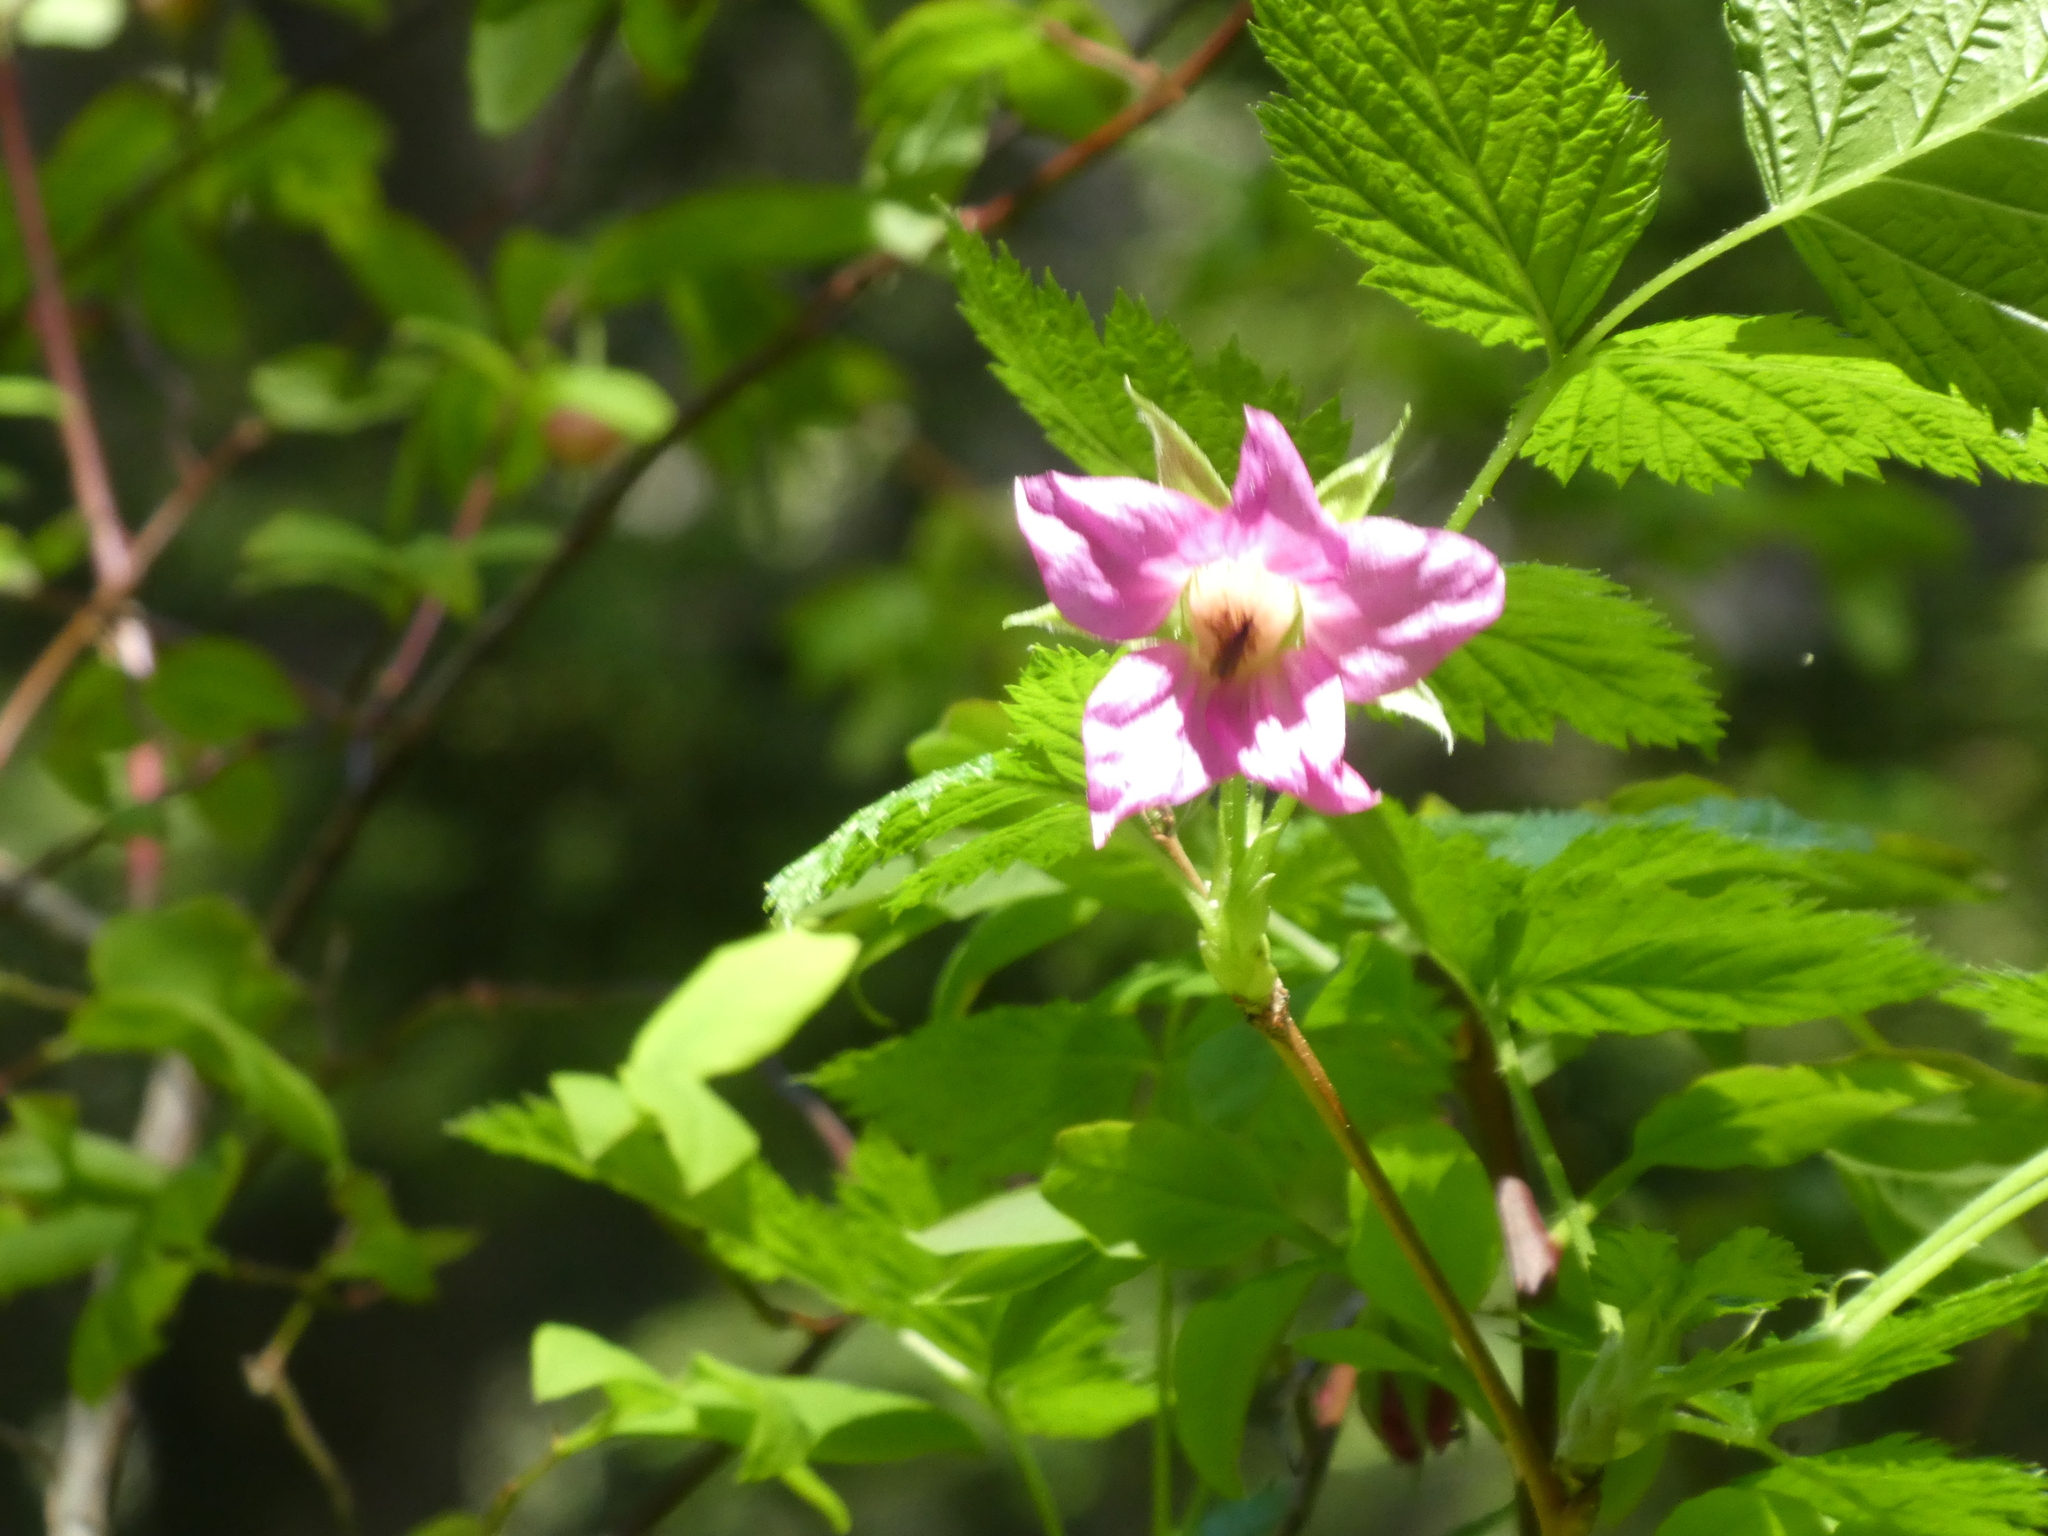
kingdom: Plantae
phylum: Tracheophyta
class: Magnoliopsida
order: Rosales
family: Rosaceae
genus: Rubus
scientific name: Rubus spectabilis
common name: Salmonberry
